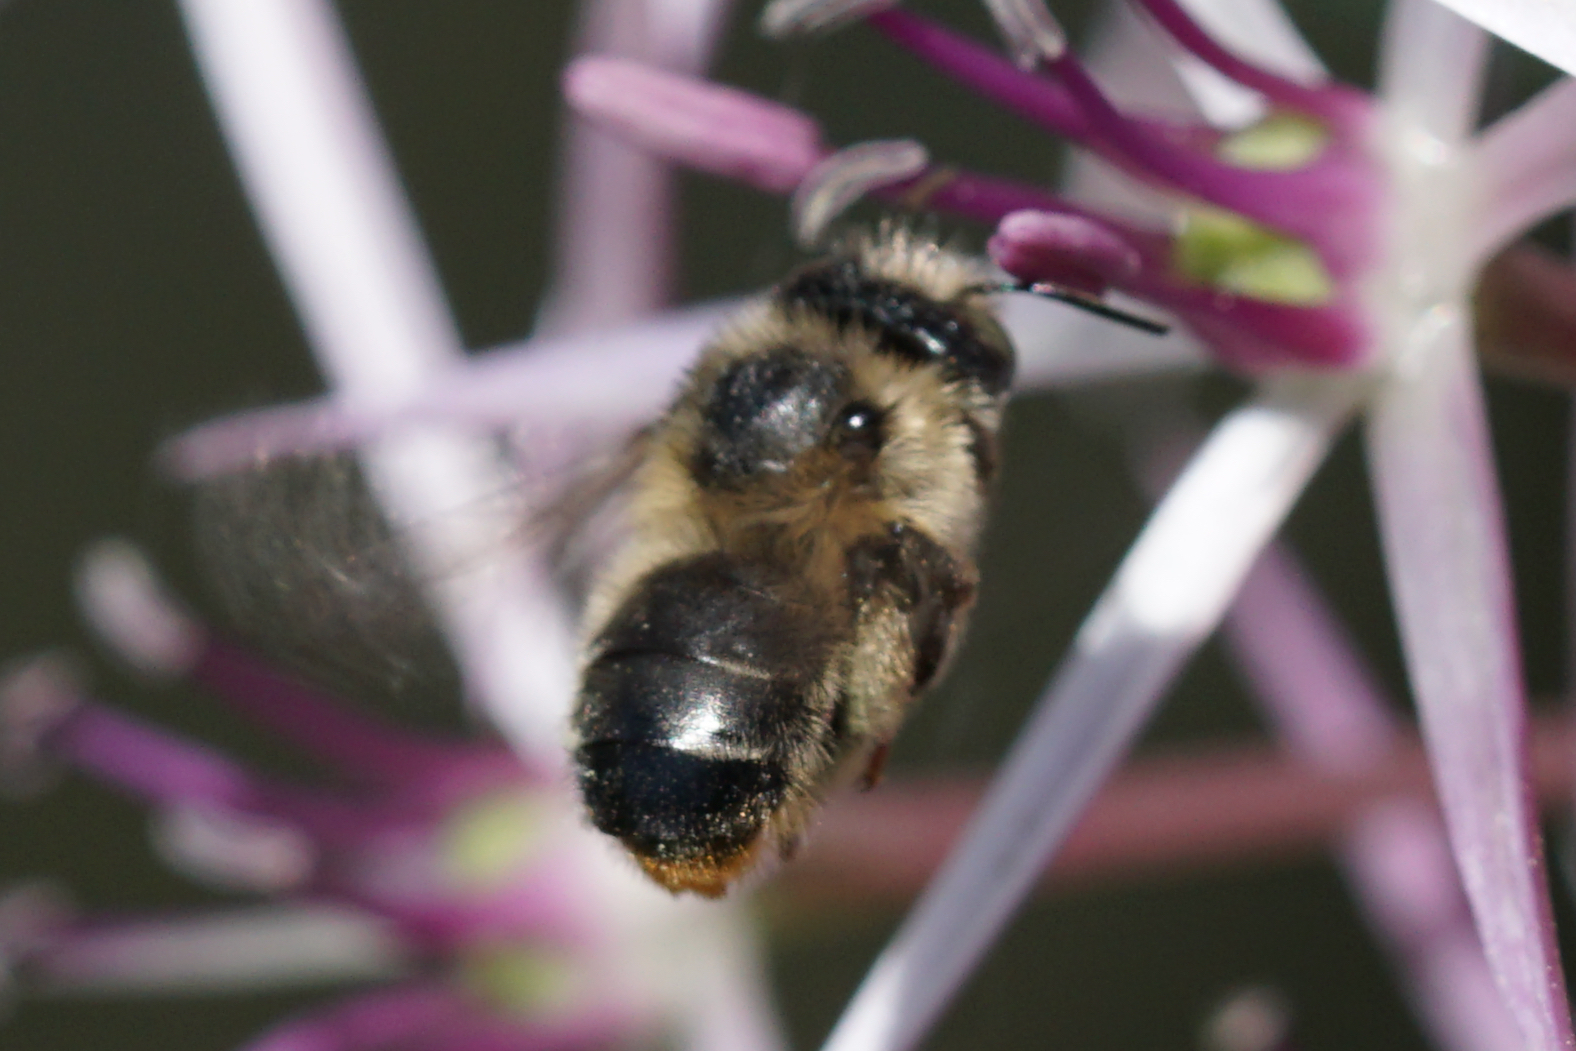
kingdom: Animalia
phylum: Arthropoda
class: Insecta
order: Hymenoptera
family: Apidae
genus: Anthophora
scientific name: Anthophora terminalis
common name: Orange-tipped wood-digger bee
